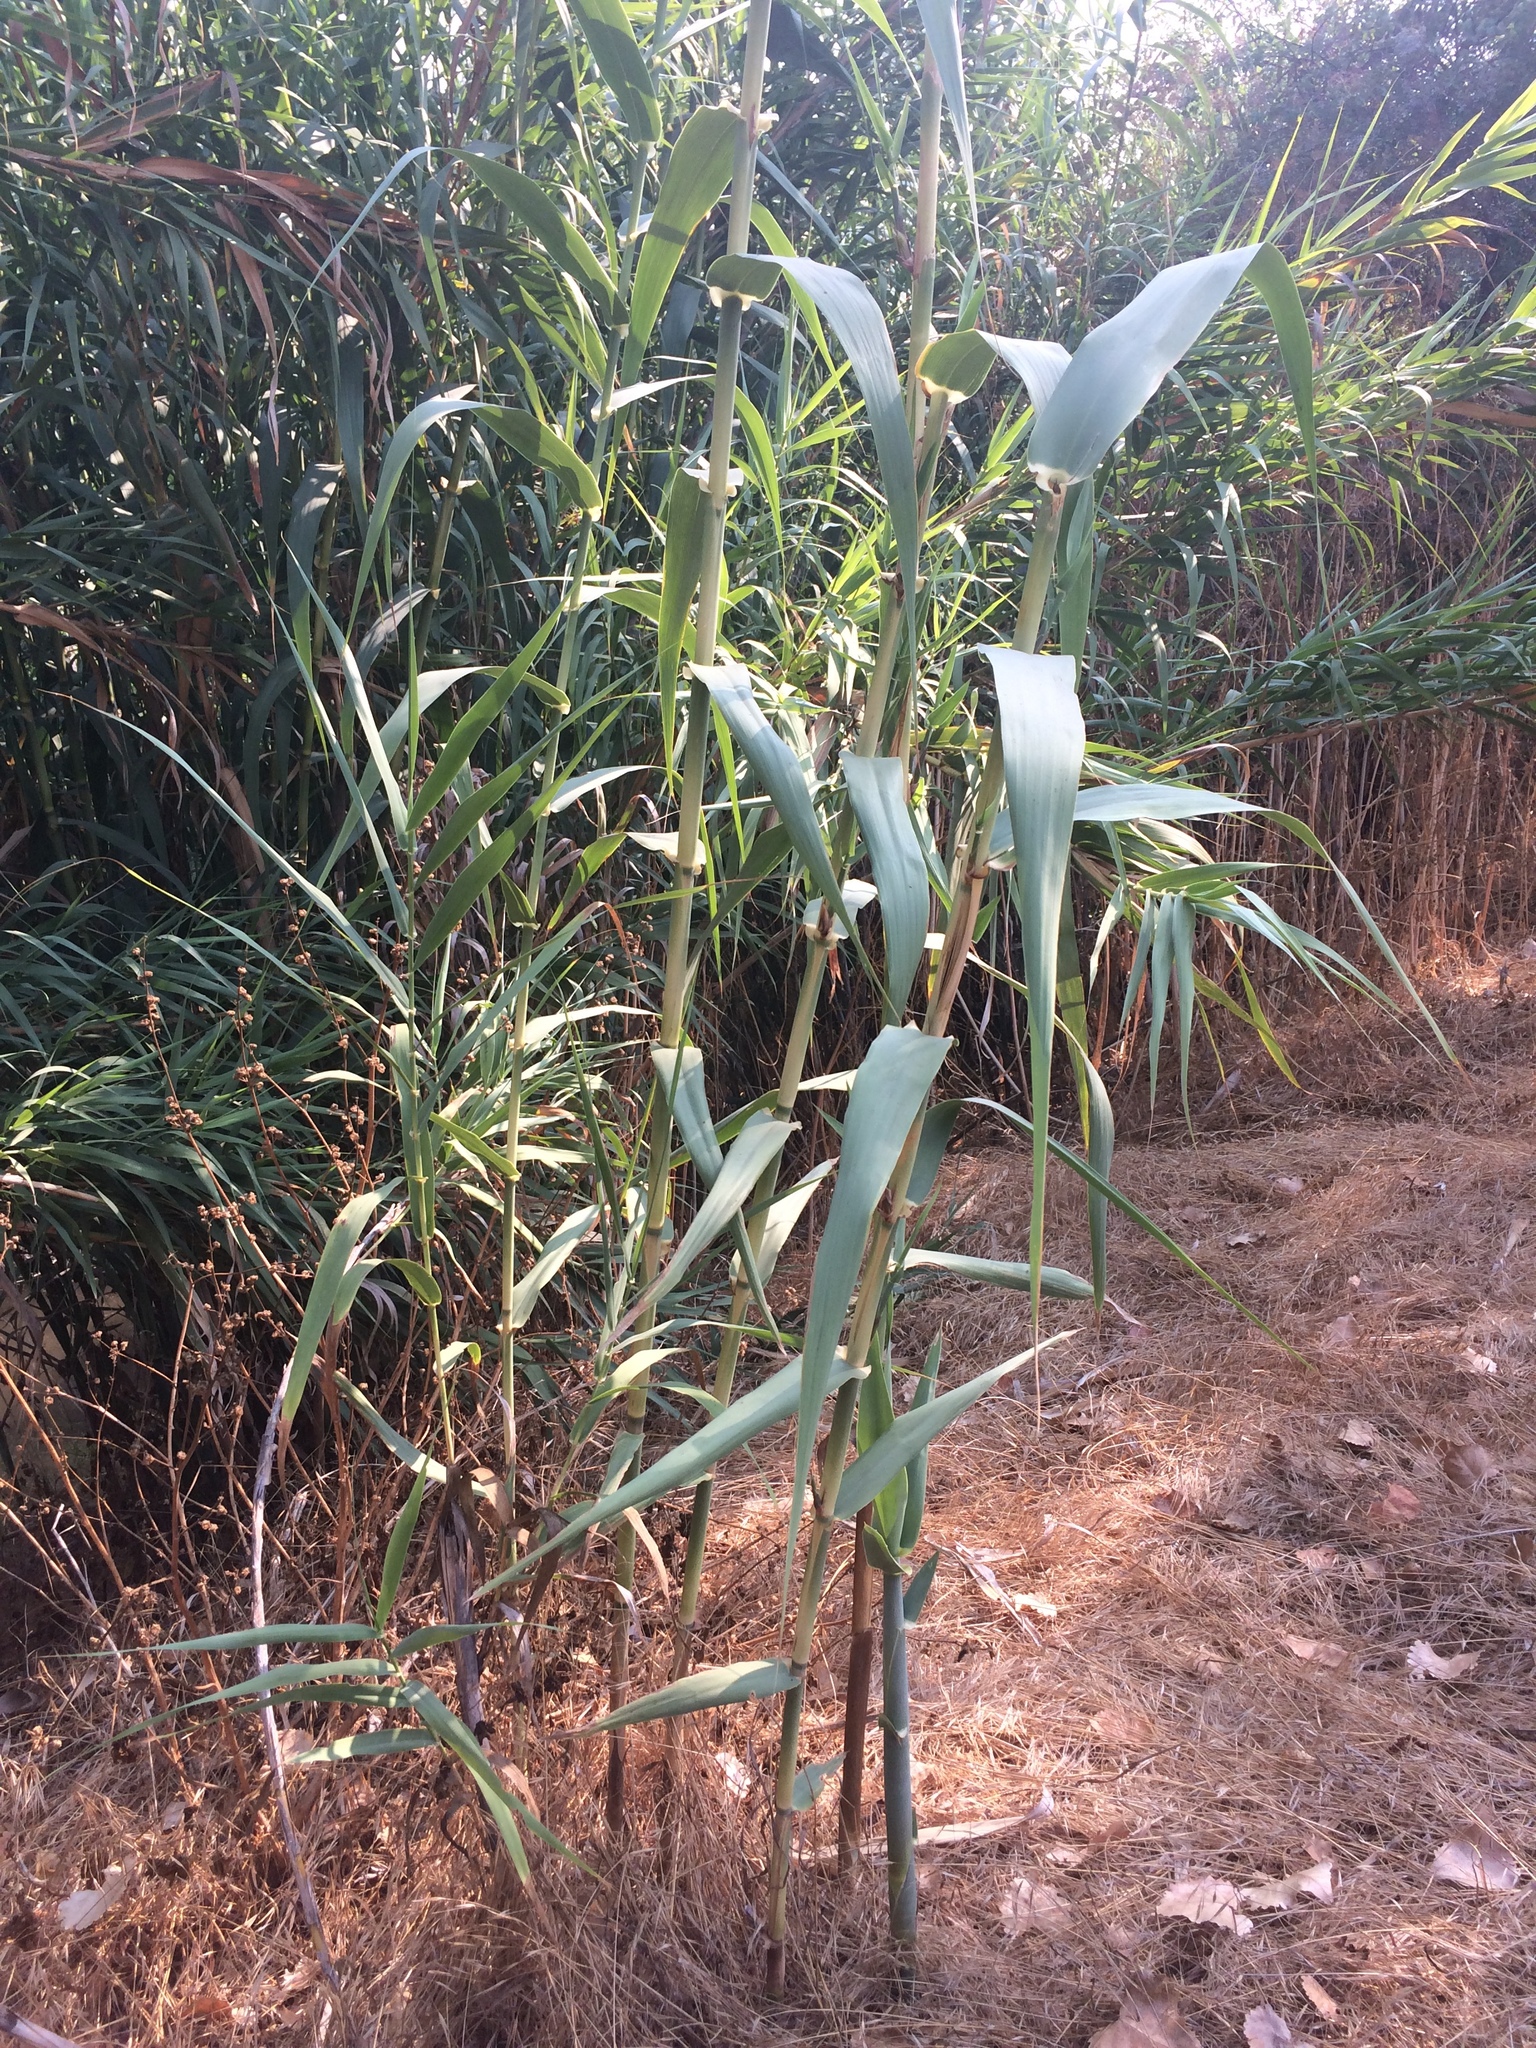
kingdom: Plantae
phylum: Tracheophyta
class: Liliopsida
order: Poales
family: Poaceae
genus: Arundo
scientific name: Arundo donax
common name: Giant reed
